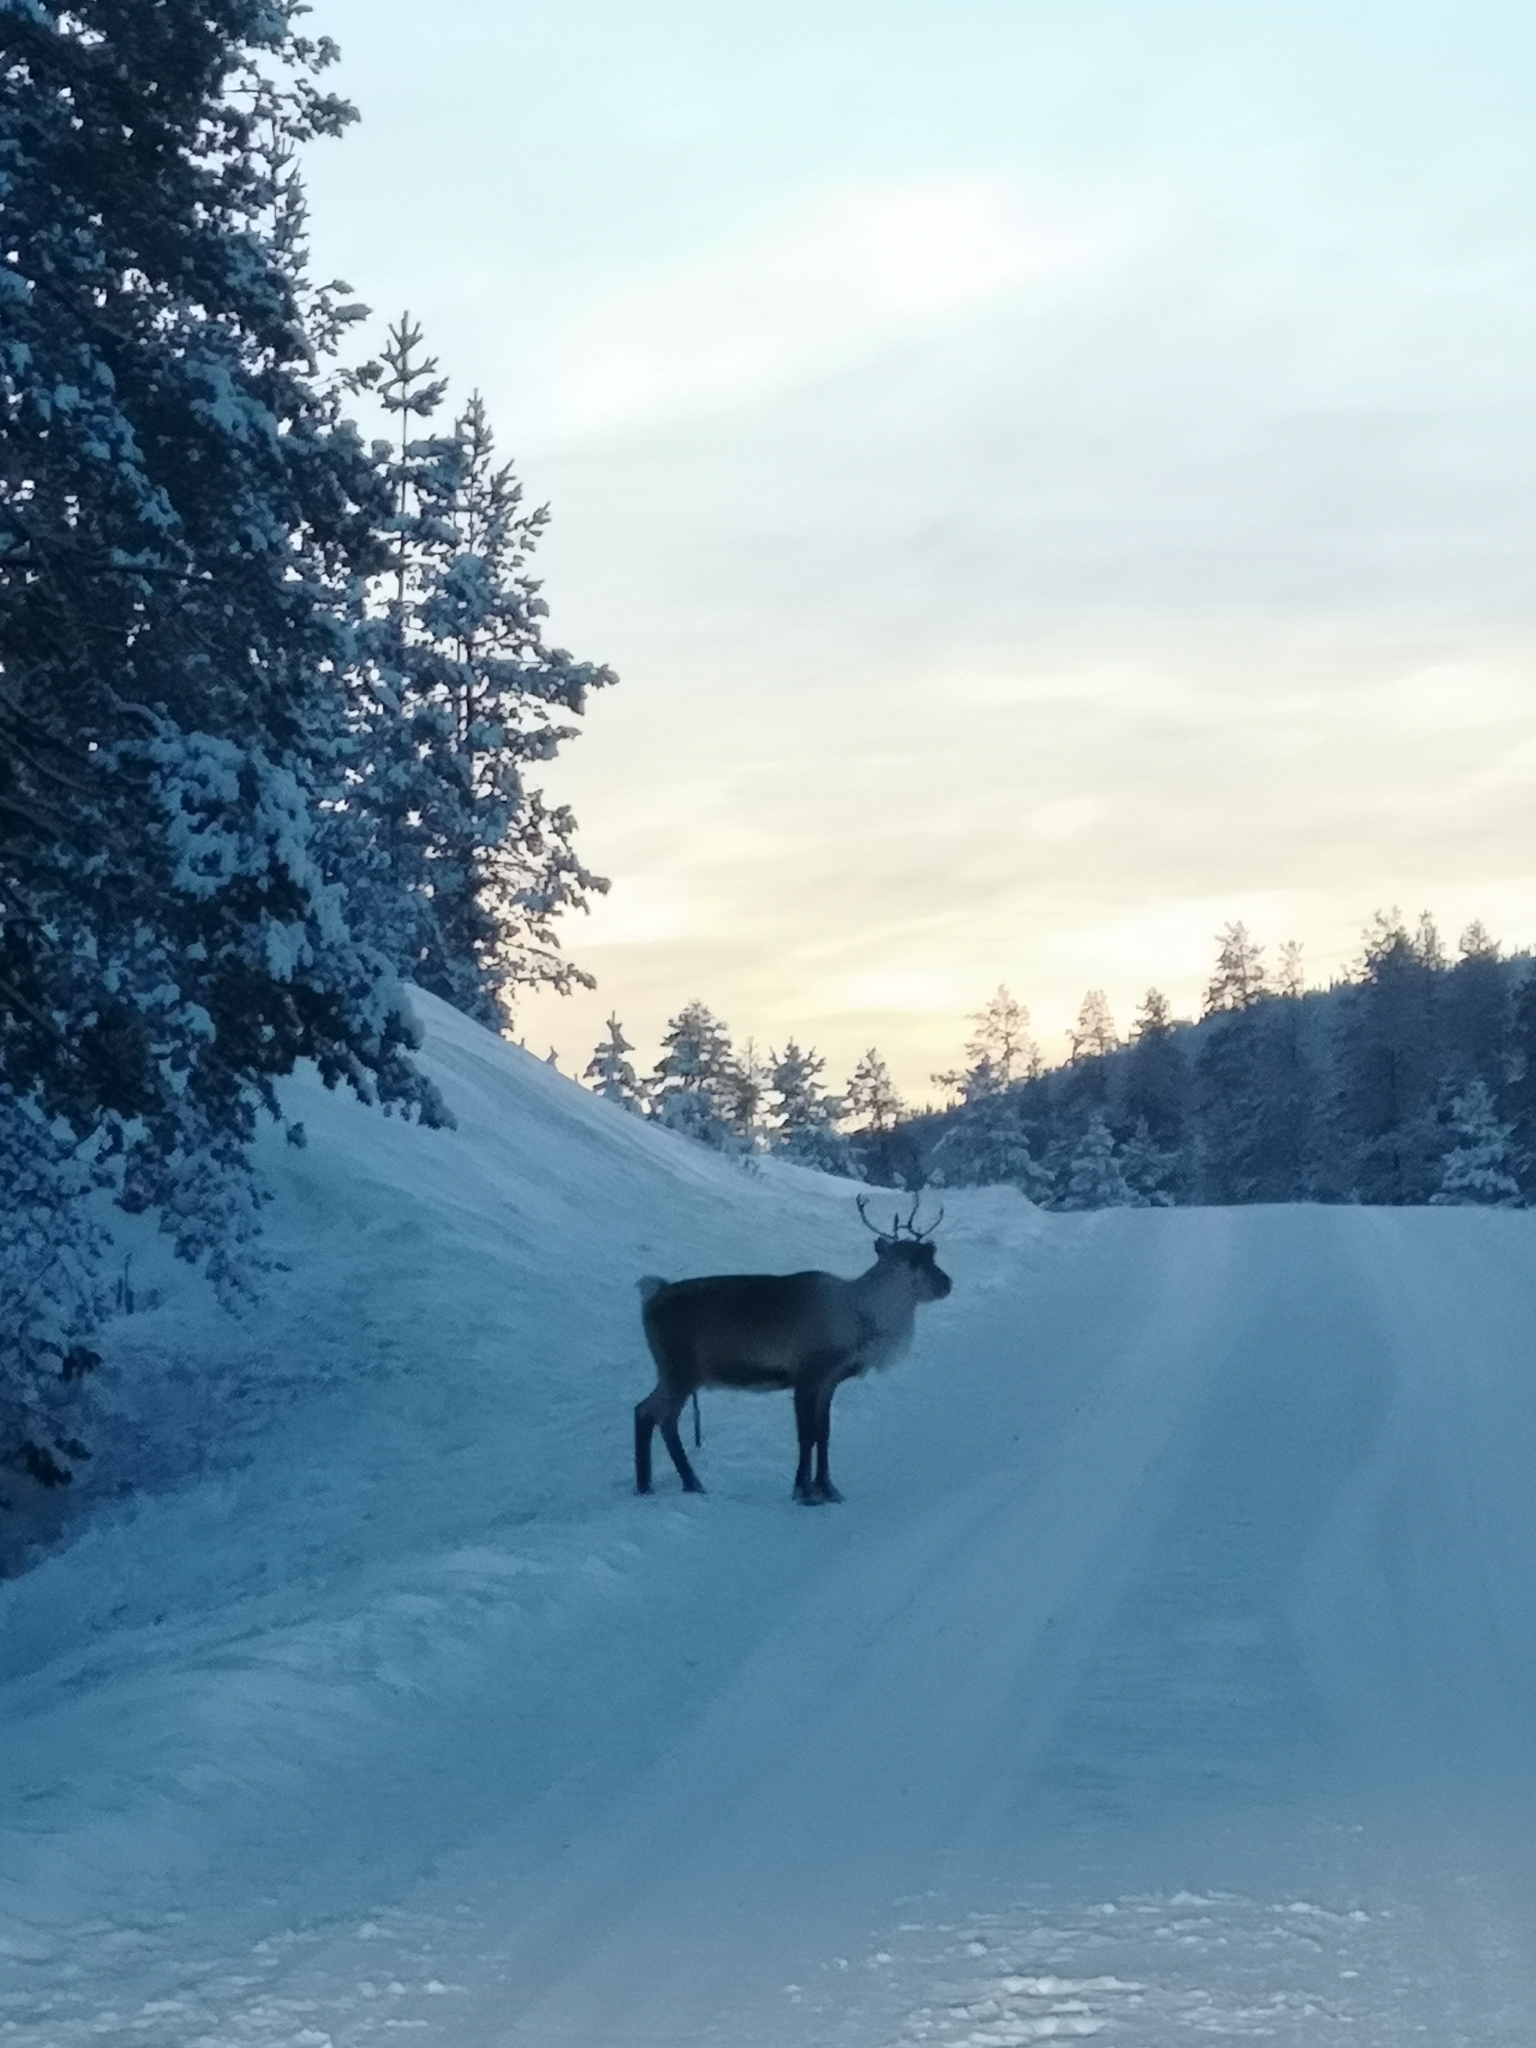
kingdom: Animalia
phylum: Chordata
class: Mammalia
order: Artiodactyla
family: Cervidae
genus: Rangifer
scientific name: Rangifer tarandus
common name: Reindeer
